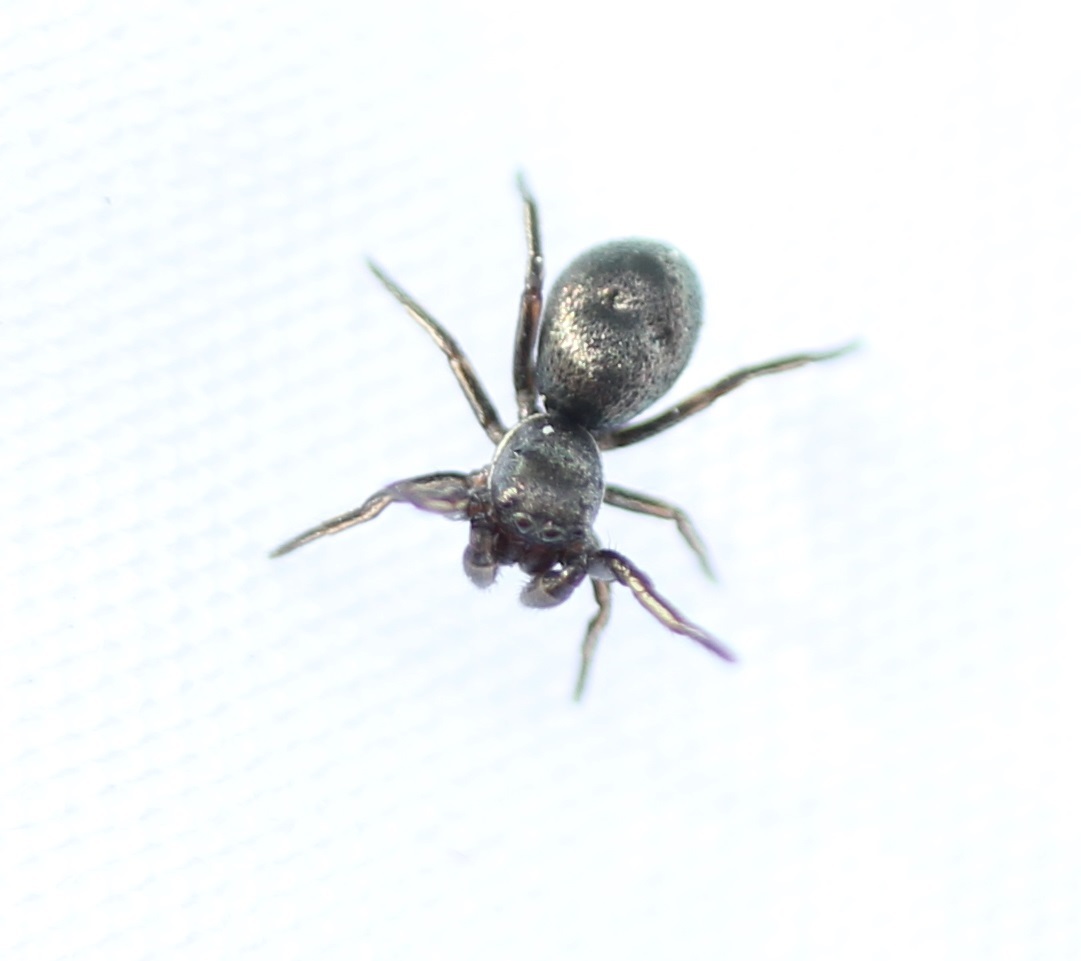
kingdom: Animalia
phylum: Arthropoda
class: Arachnida
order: Araneae
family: Salticidae
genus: Tutelina
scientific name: Tutelina formicaria
